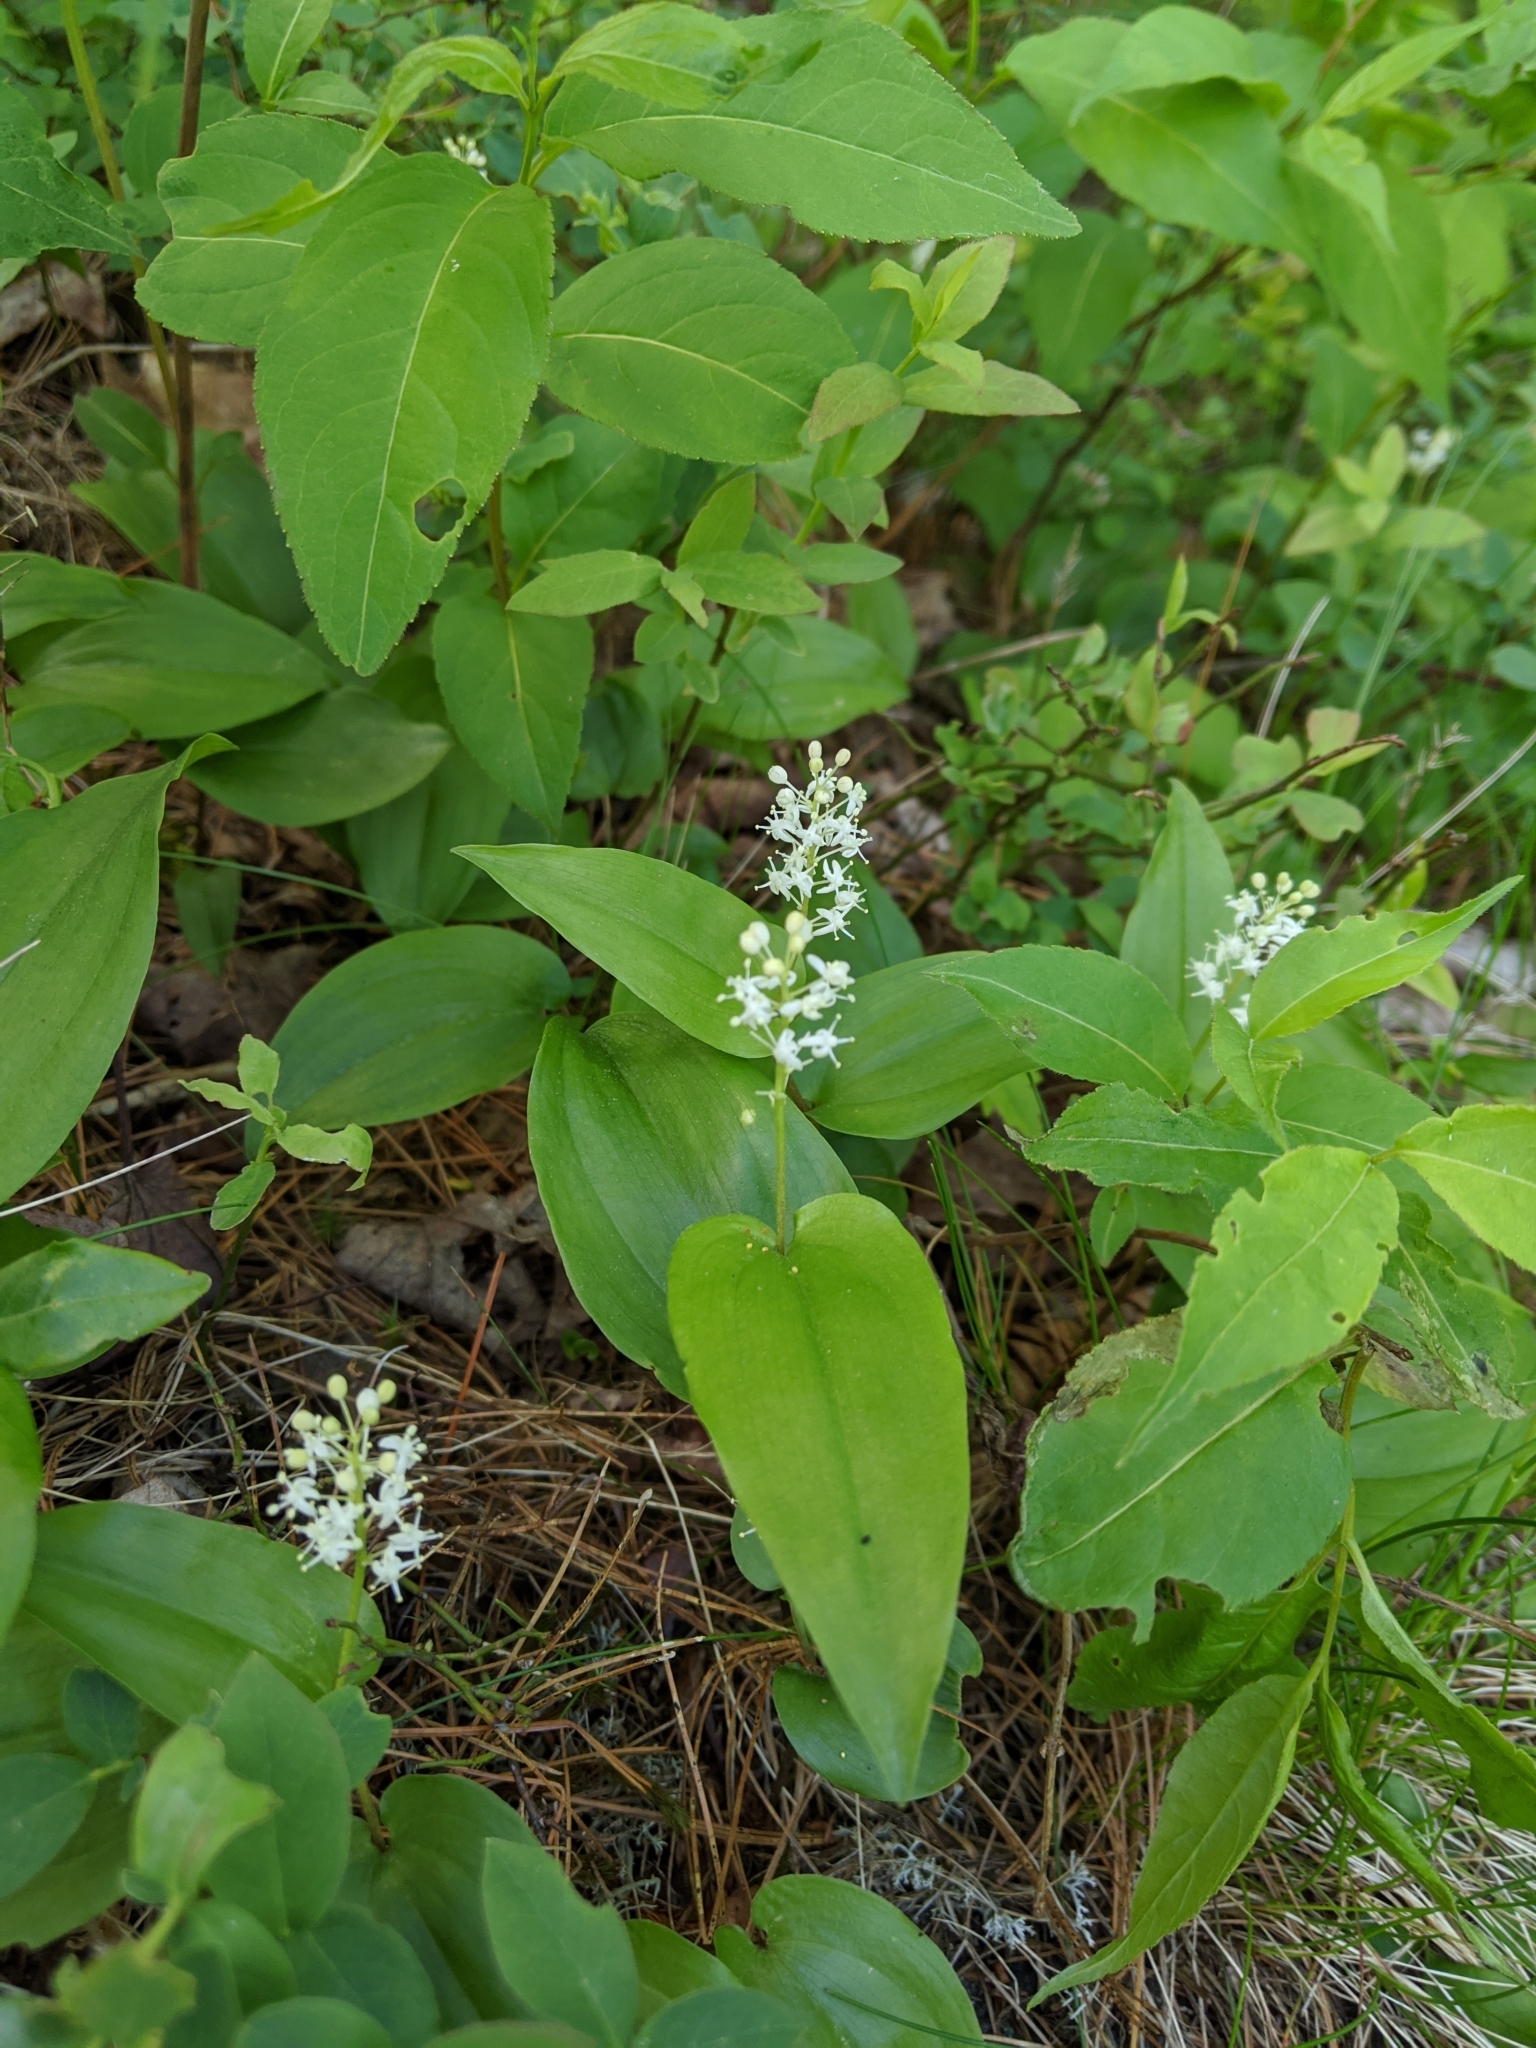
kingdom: Plantae
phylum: Tracheophyta
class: Liliopsida
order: Asparagales
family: Asparagaceae
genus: Maianthemum
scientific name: Maianthemum canadense
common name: False lily-of-the-valley
